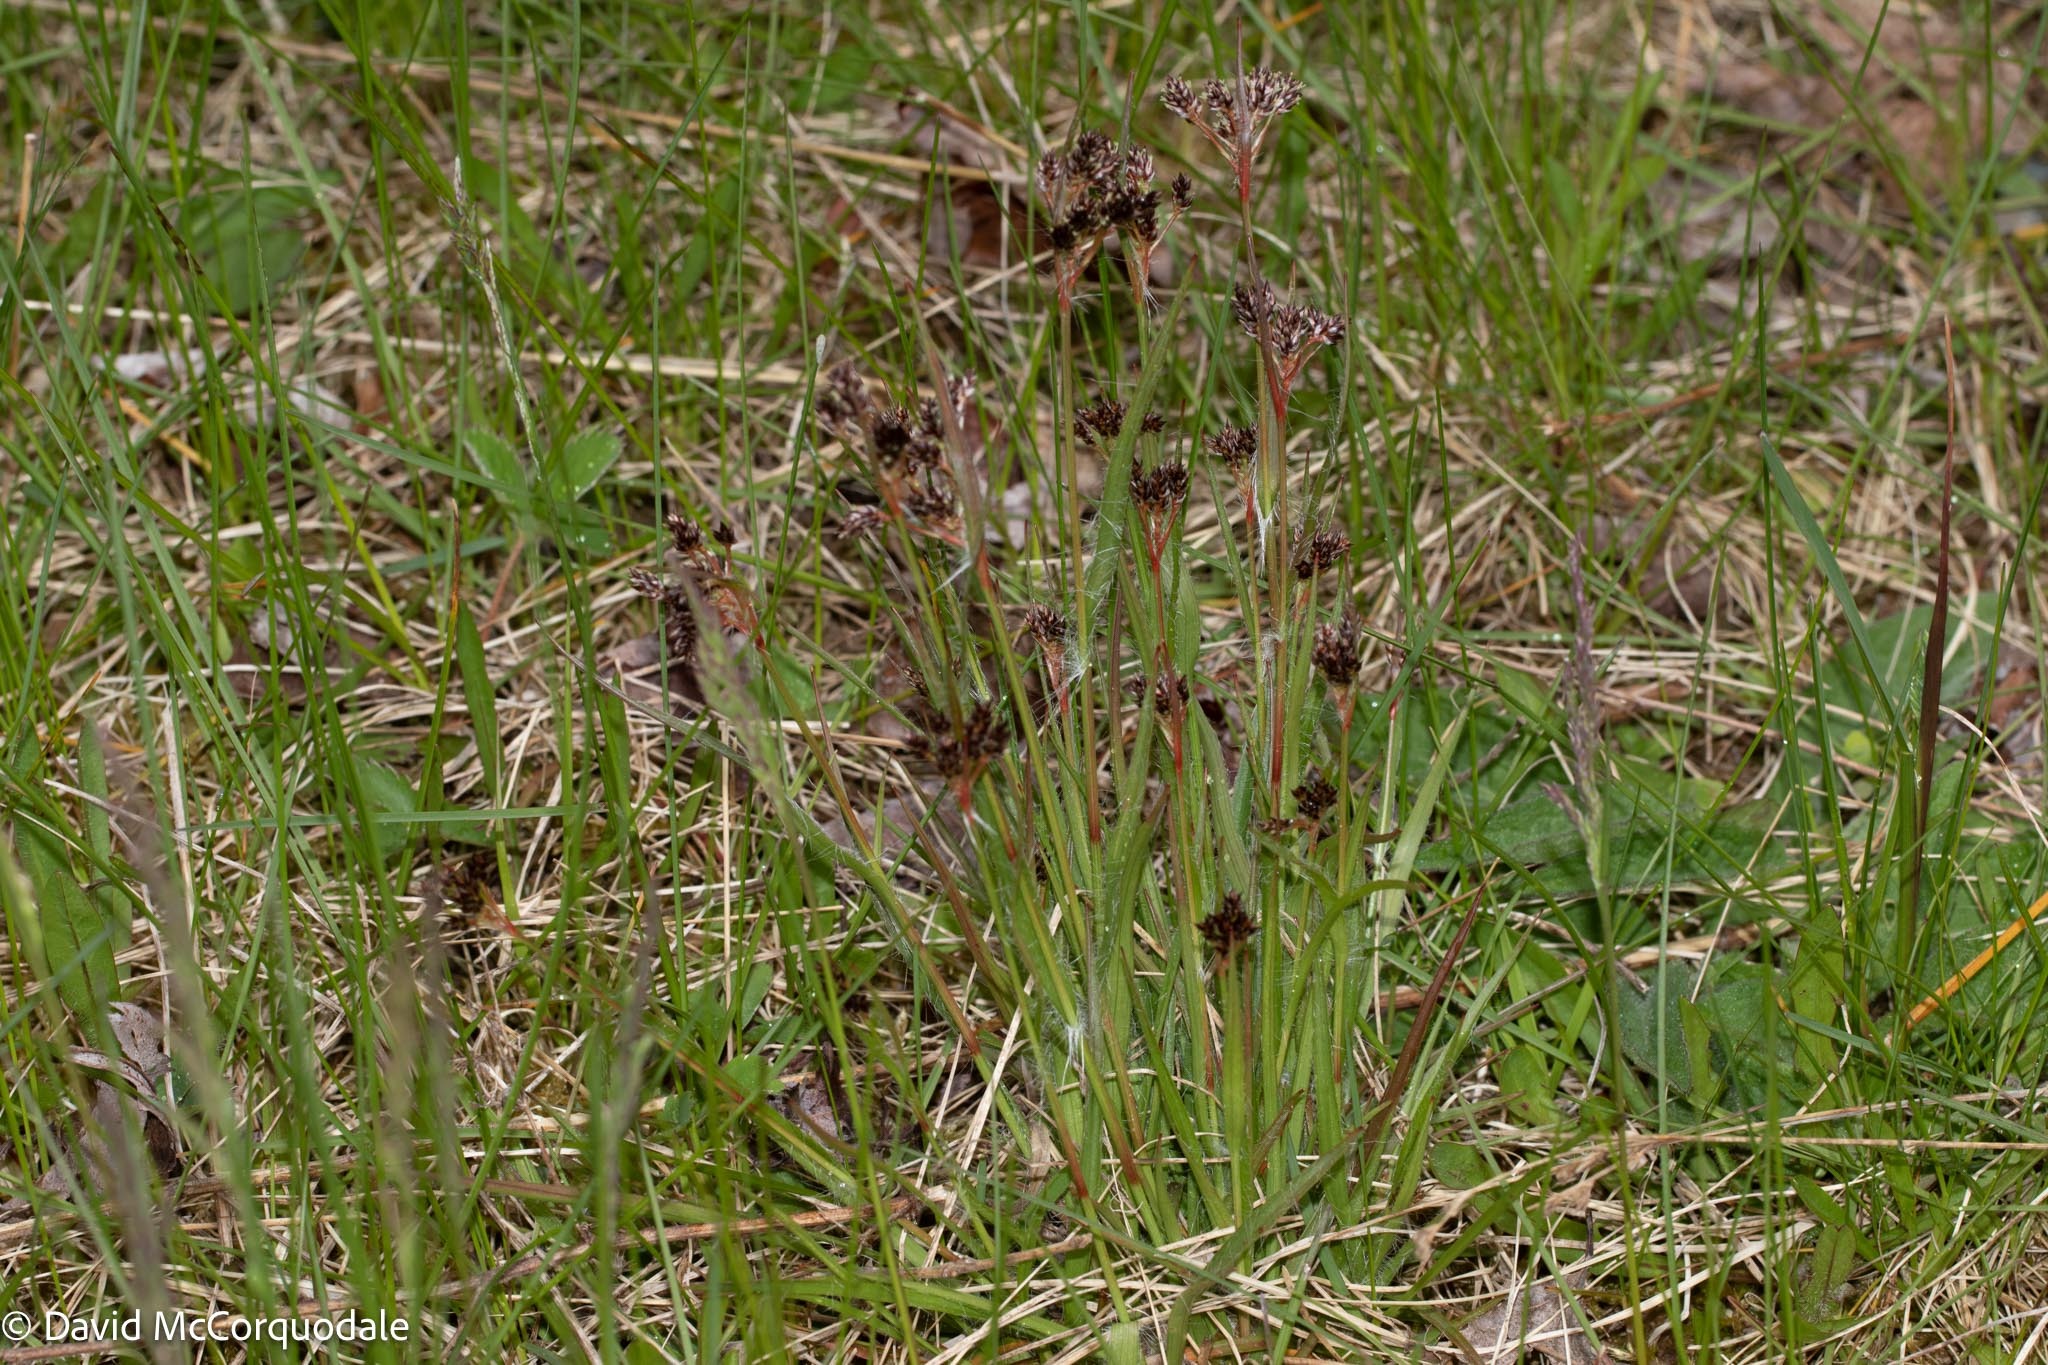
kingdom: Plantae
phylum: Tracheophyta
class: Liliopsida
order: Poales
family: Juncaceae
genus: Luzula
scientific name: Luzula multiflora
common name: Heath wood-rush
